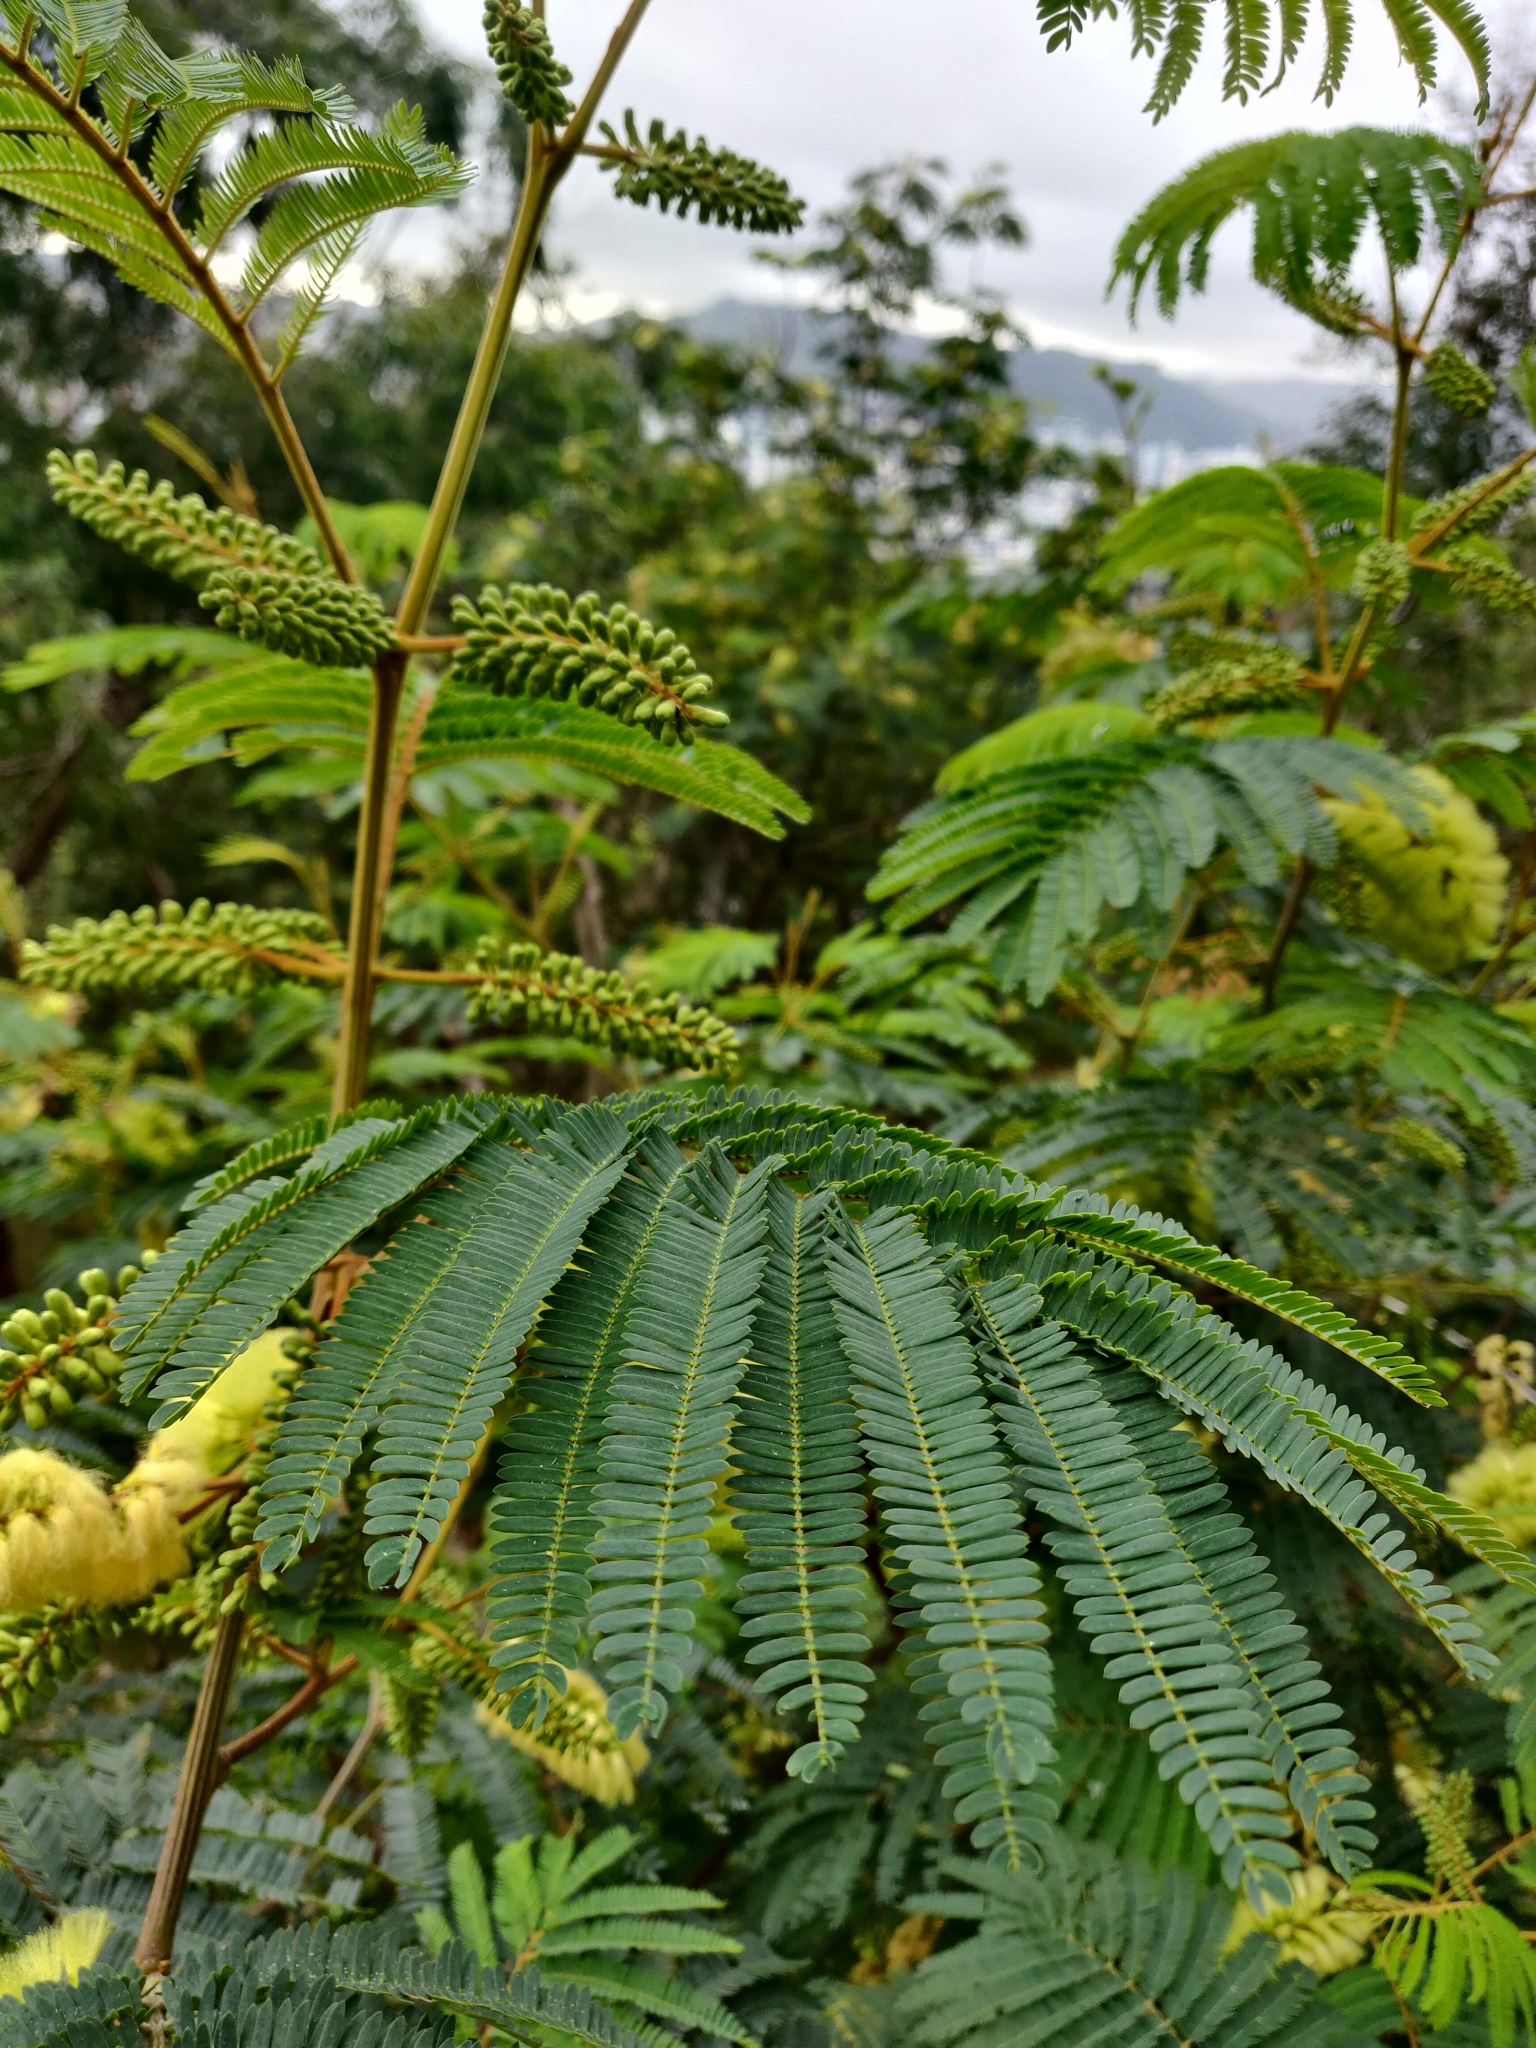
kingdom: Plantae
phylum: Tracheophyta
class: Magnoliopsida
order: Fabales
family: Fabaceae
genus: Paraserianthes
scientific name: Paraserianthes lophantha
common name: Plume albizia
